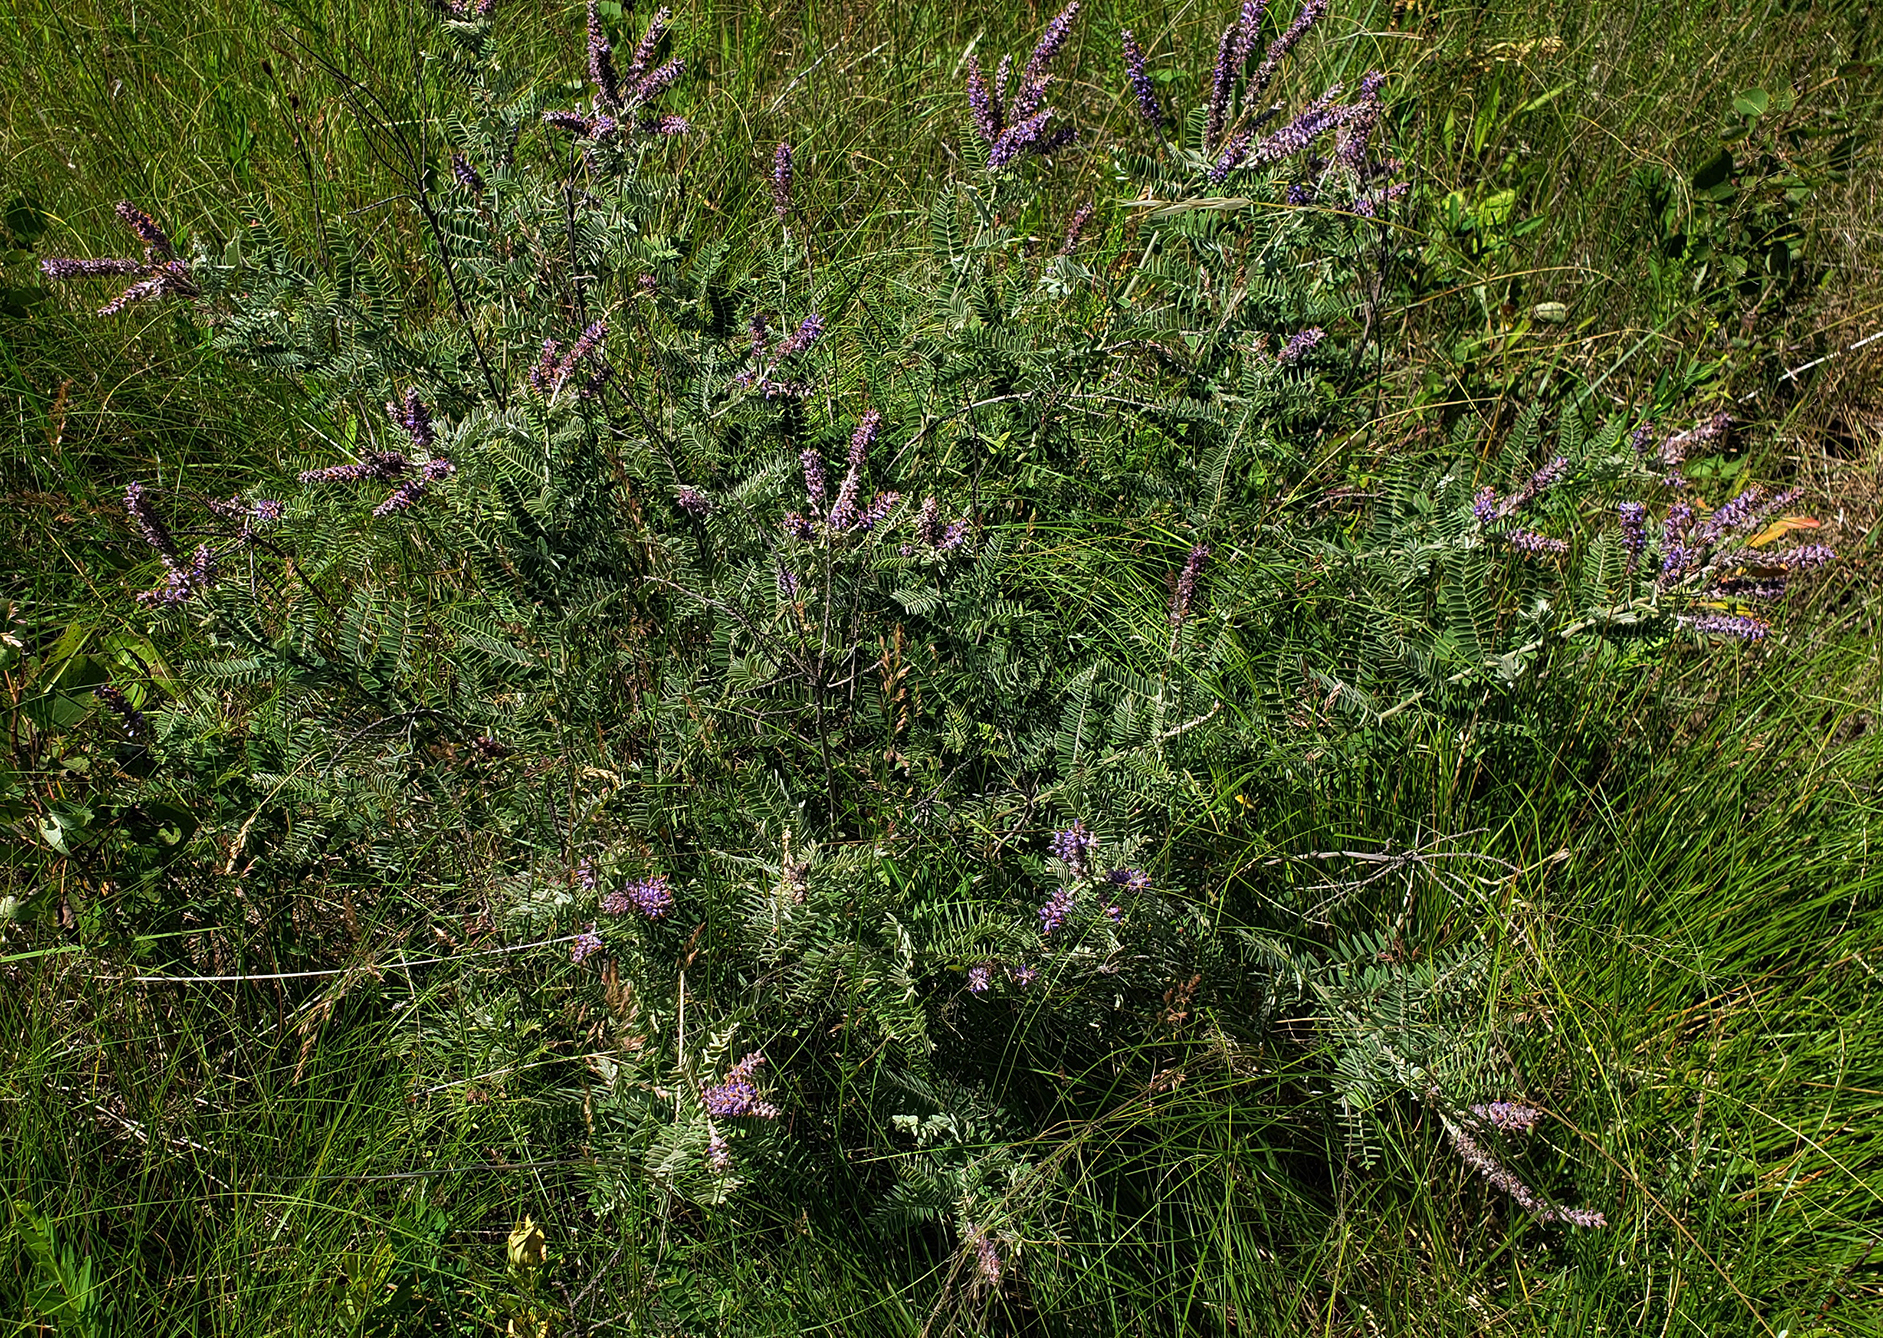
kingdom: Plantae
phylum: Tracheophyta
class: Magnoliopsida
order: Fabales
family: Fabaceae
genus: Amorpha
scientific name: Amorpha canescens
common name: Leadplant
